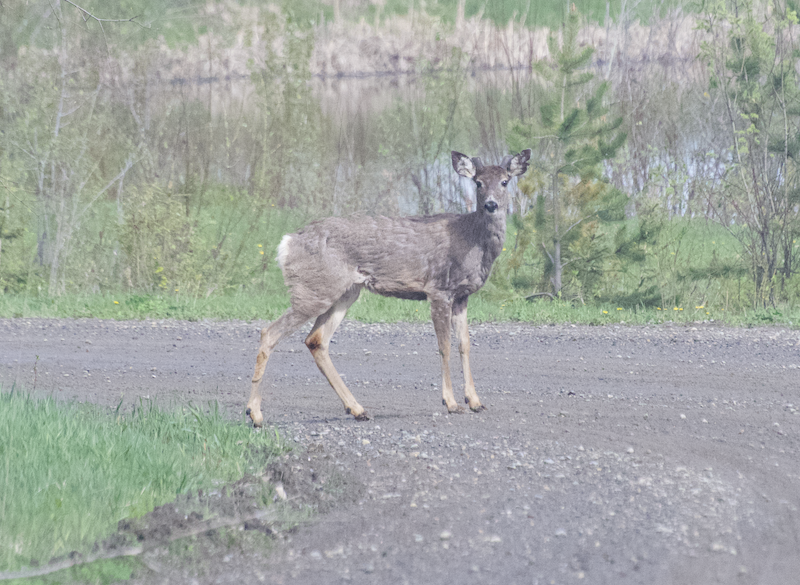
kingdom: Animalia
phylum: Chordata
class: Mammalia
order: Artiodactyla
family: Cervidae
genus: Odocoileus
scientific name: Odocoileus hemionus
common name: Mule deer
